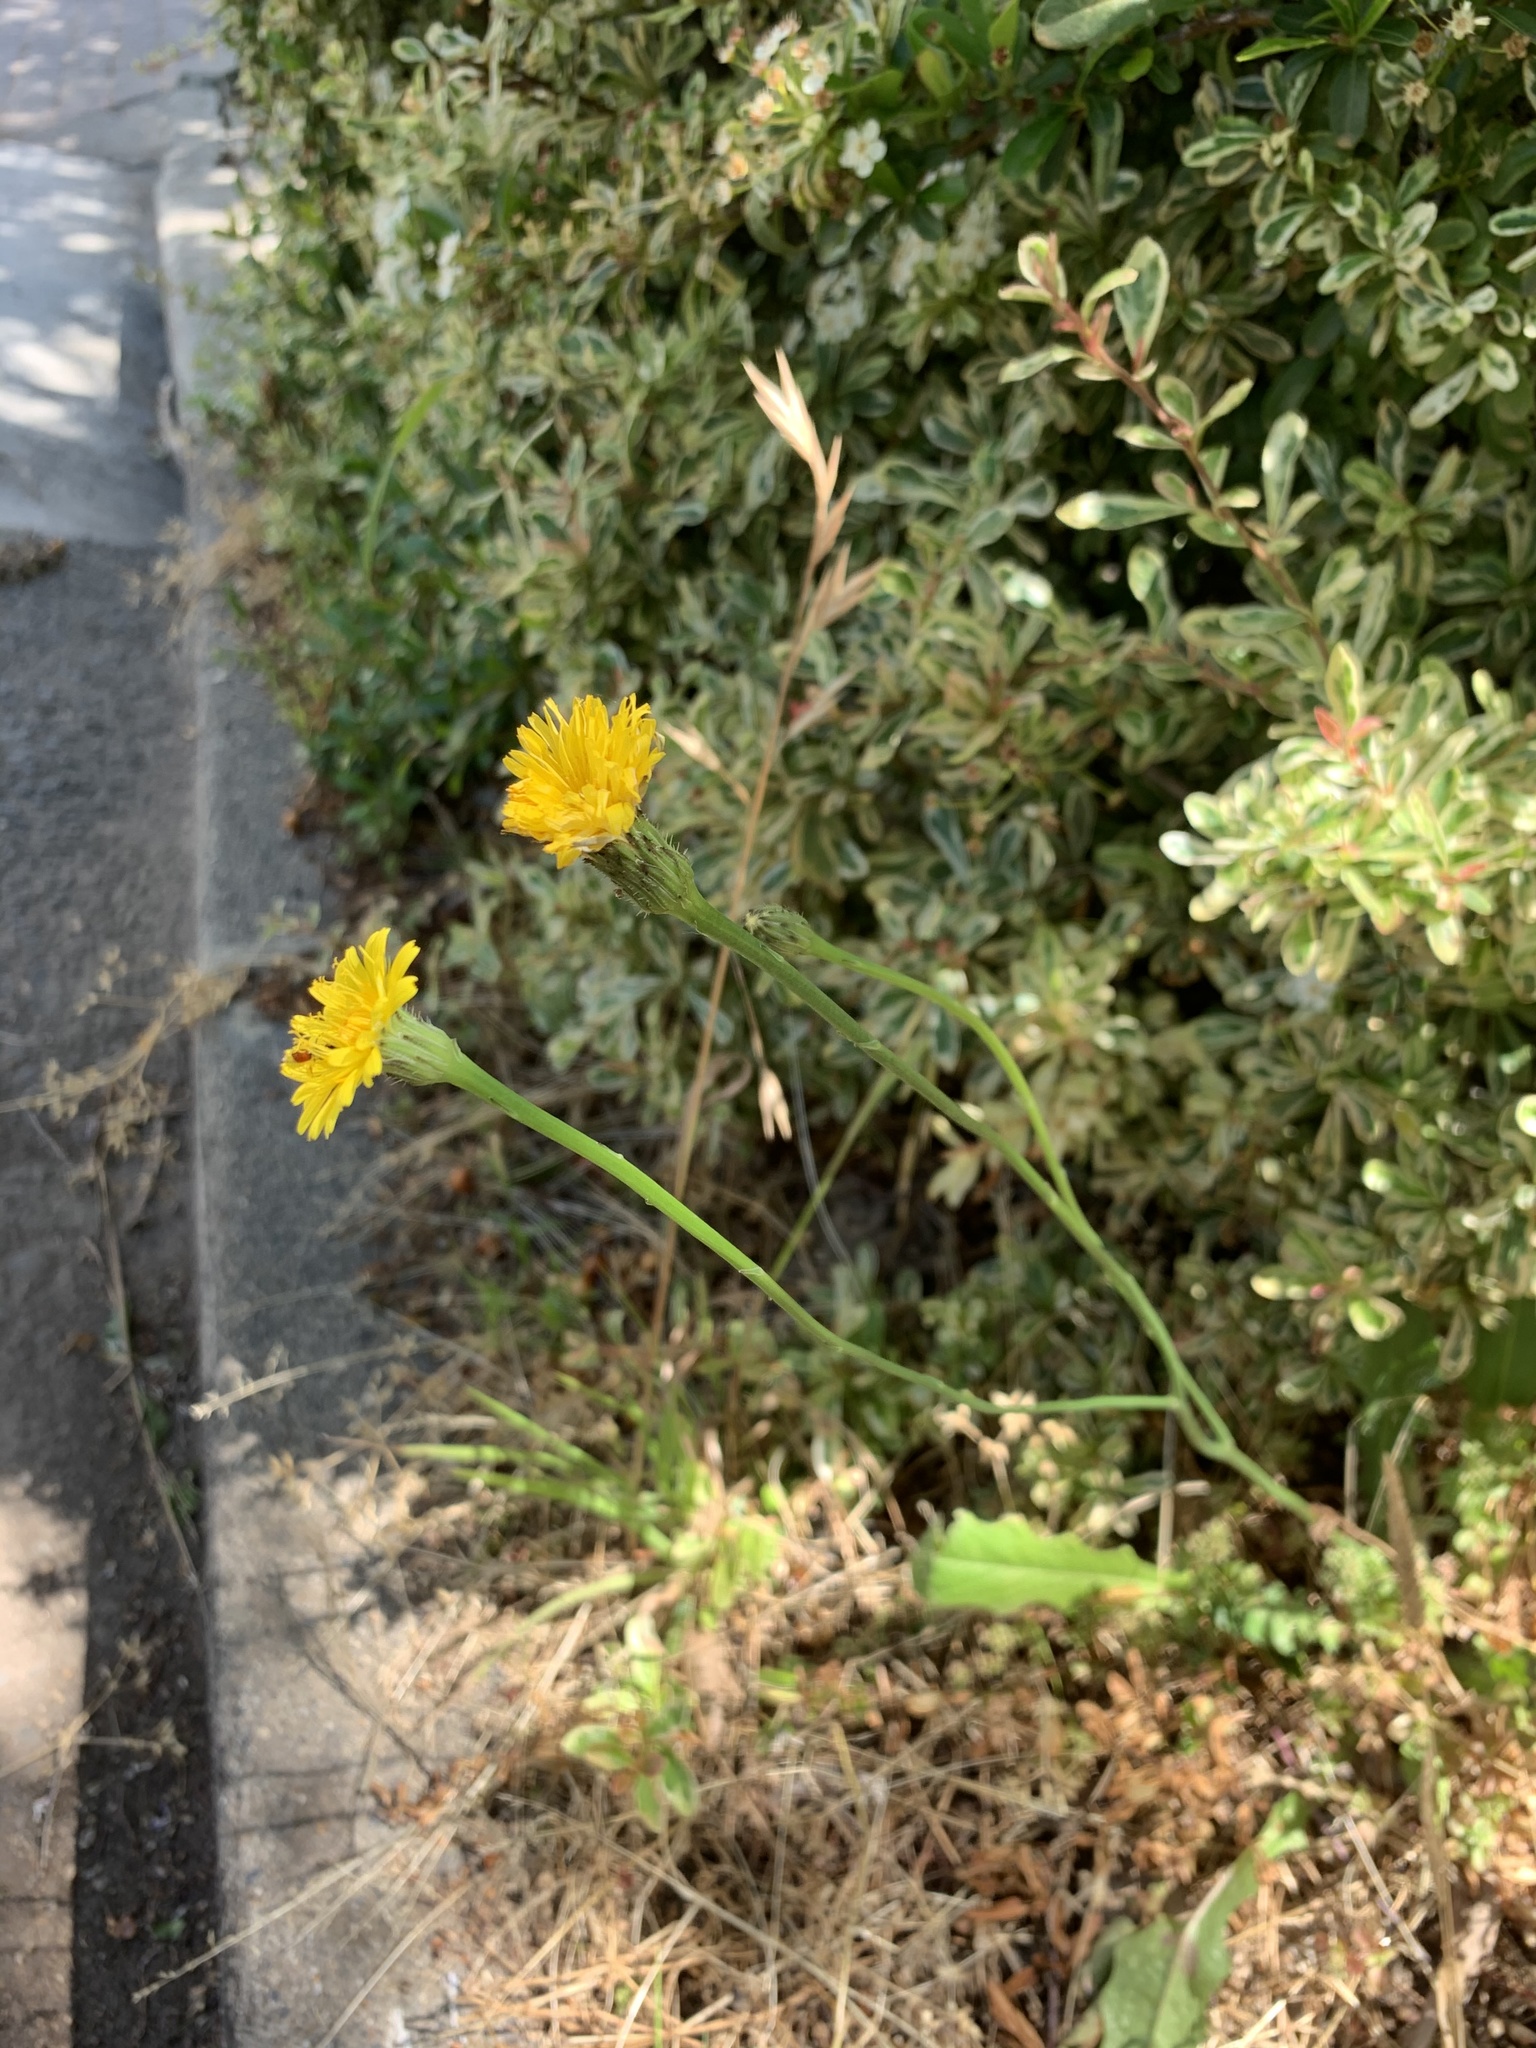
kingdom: Plantae
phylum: Tracheophyta
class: Magnoliopsida
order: Asterales
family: Asteraceae
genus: Hypochaeris
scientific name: Hypochaeris radicata
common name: Flatweed
